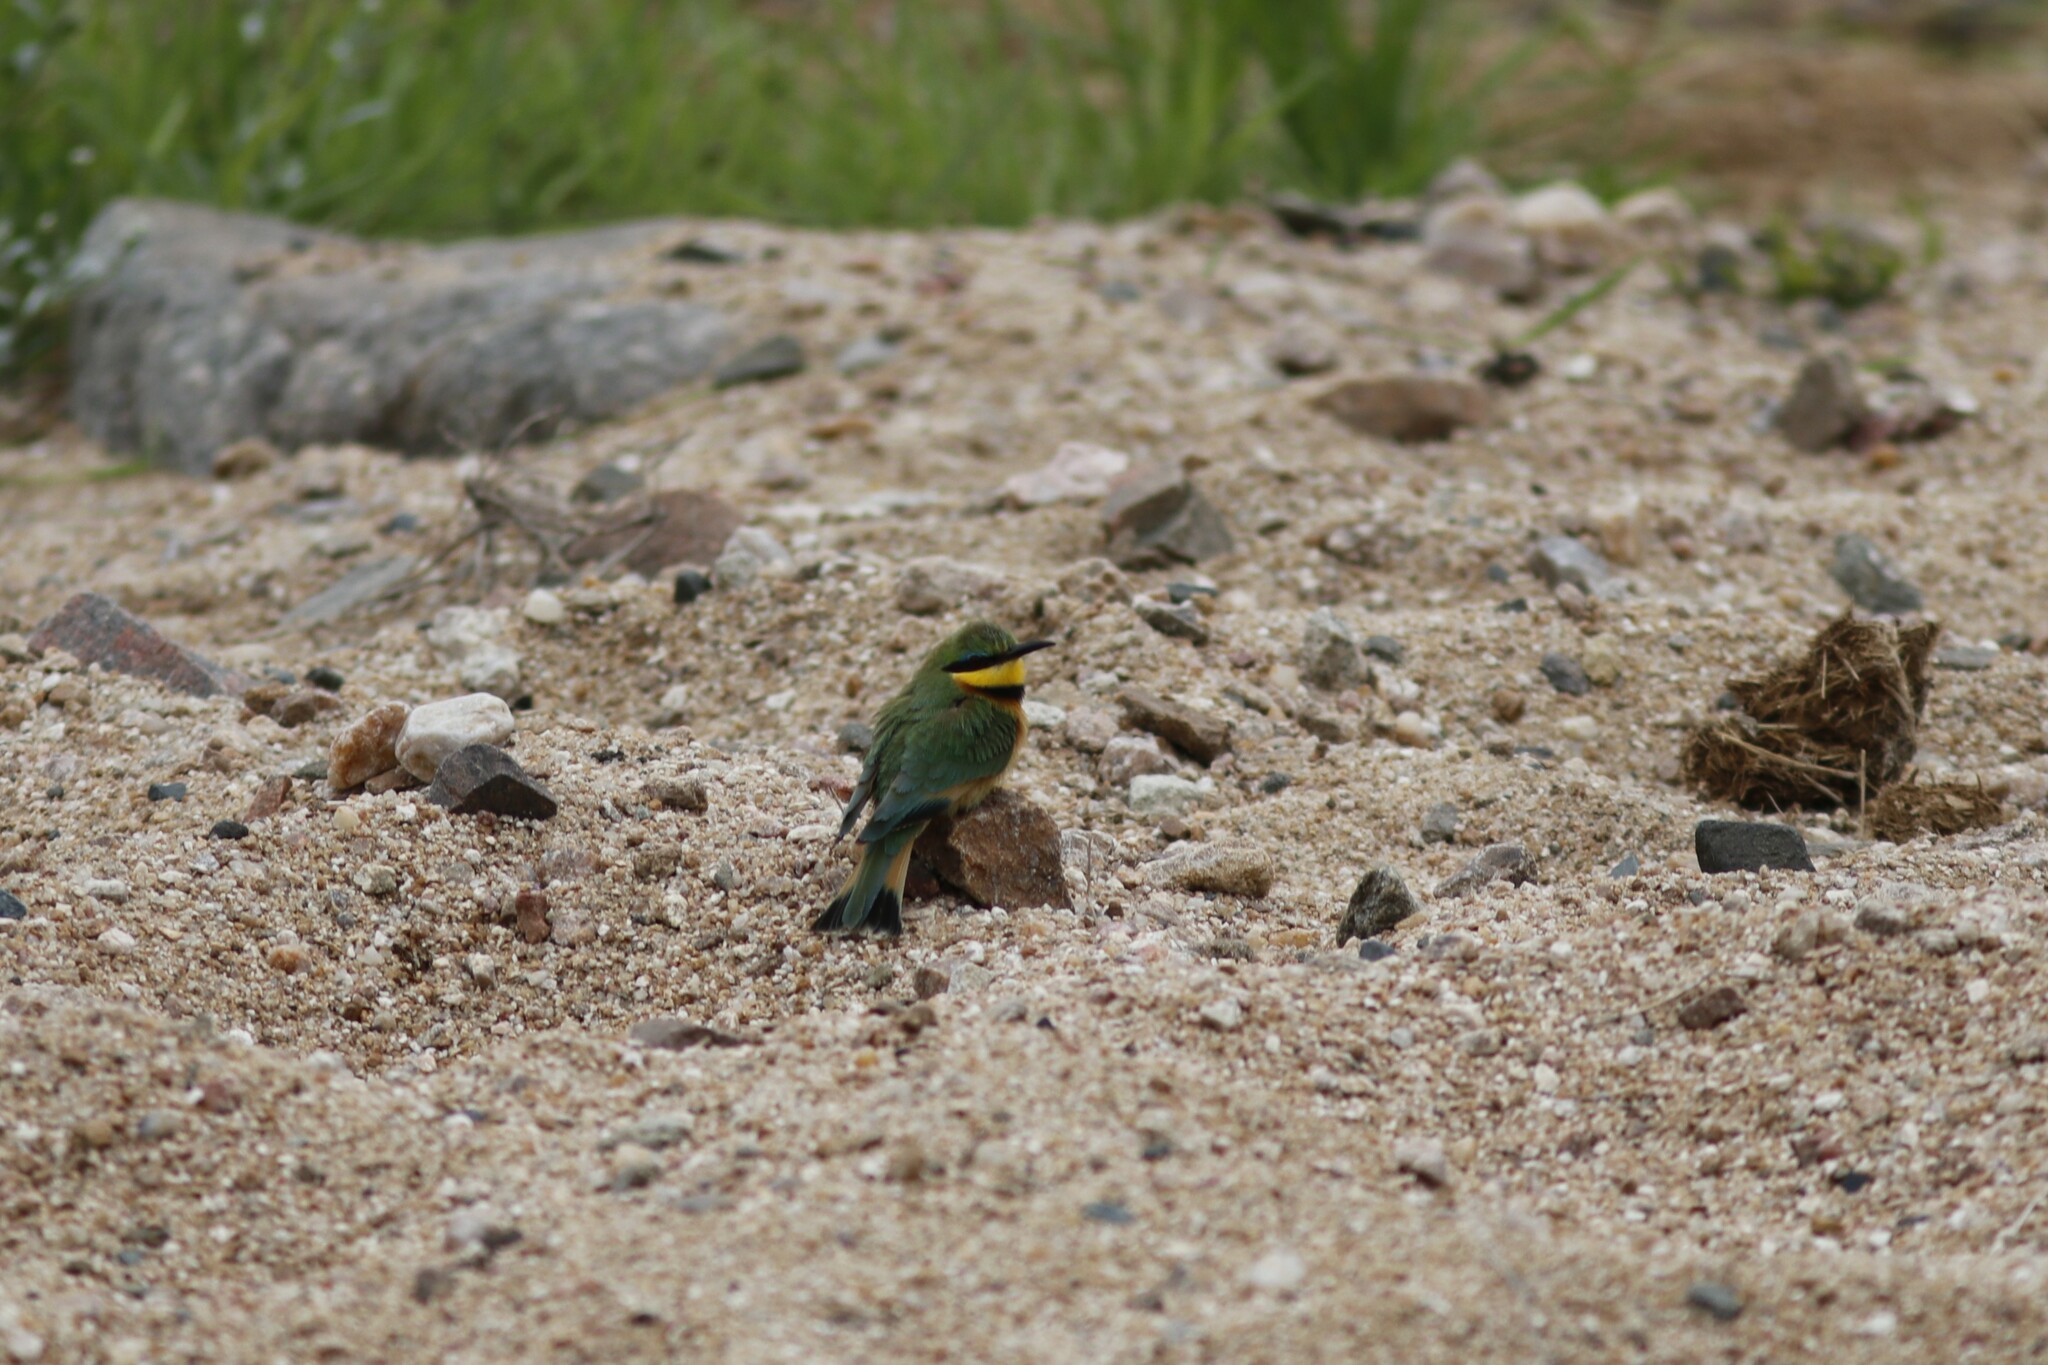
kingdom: Animalia
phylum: Chordata
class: Aves
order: Coraciiformes
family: Meropidae
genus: Merops
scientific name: Merops pusillus
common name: Little bee-eater
